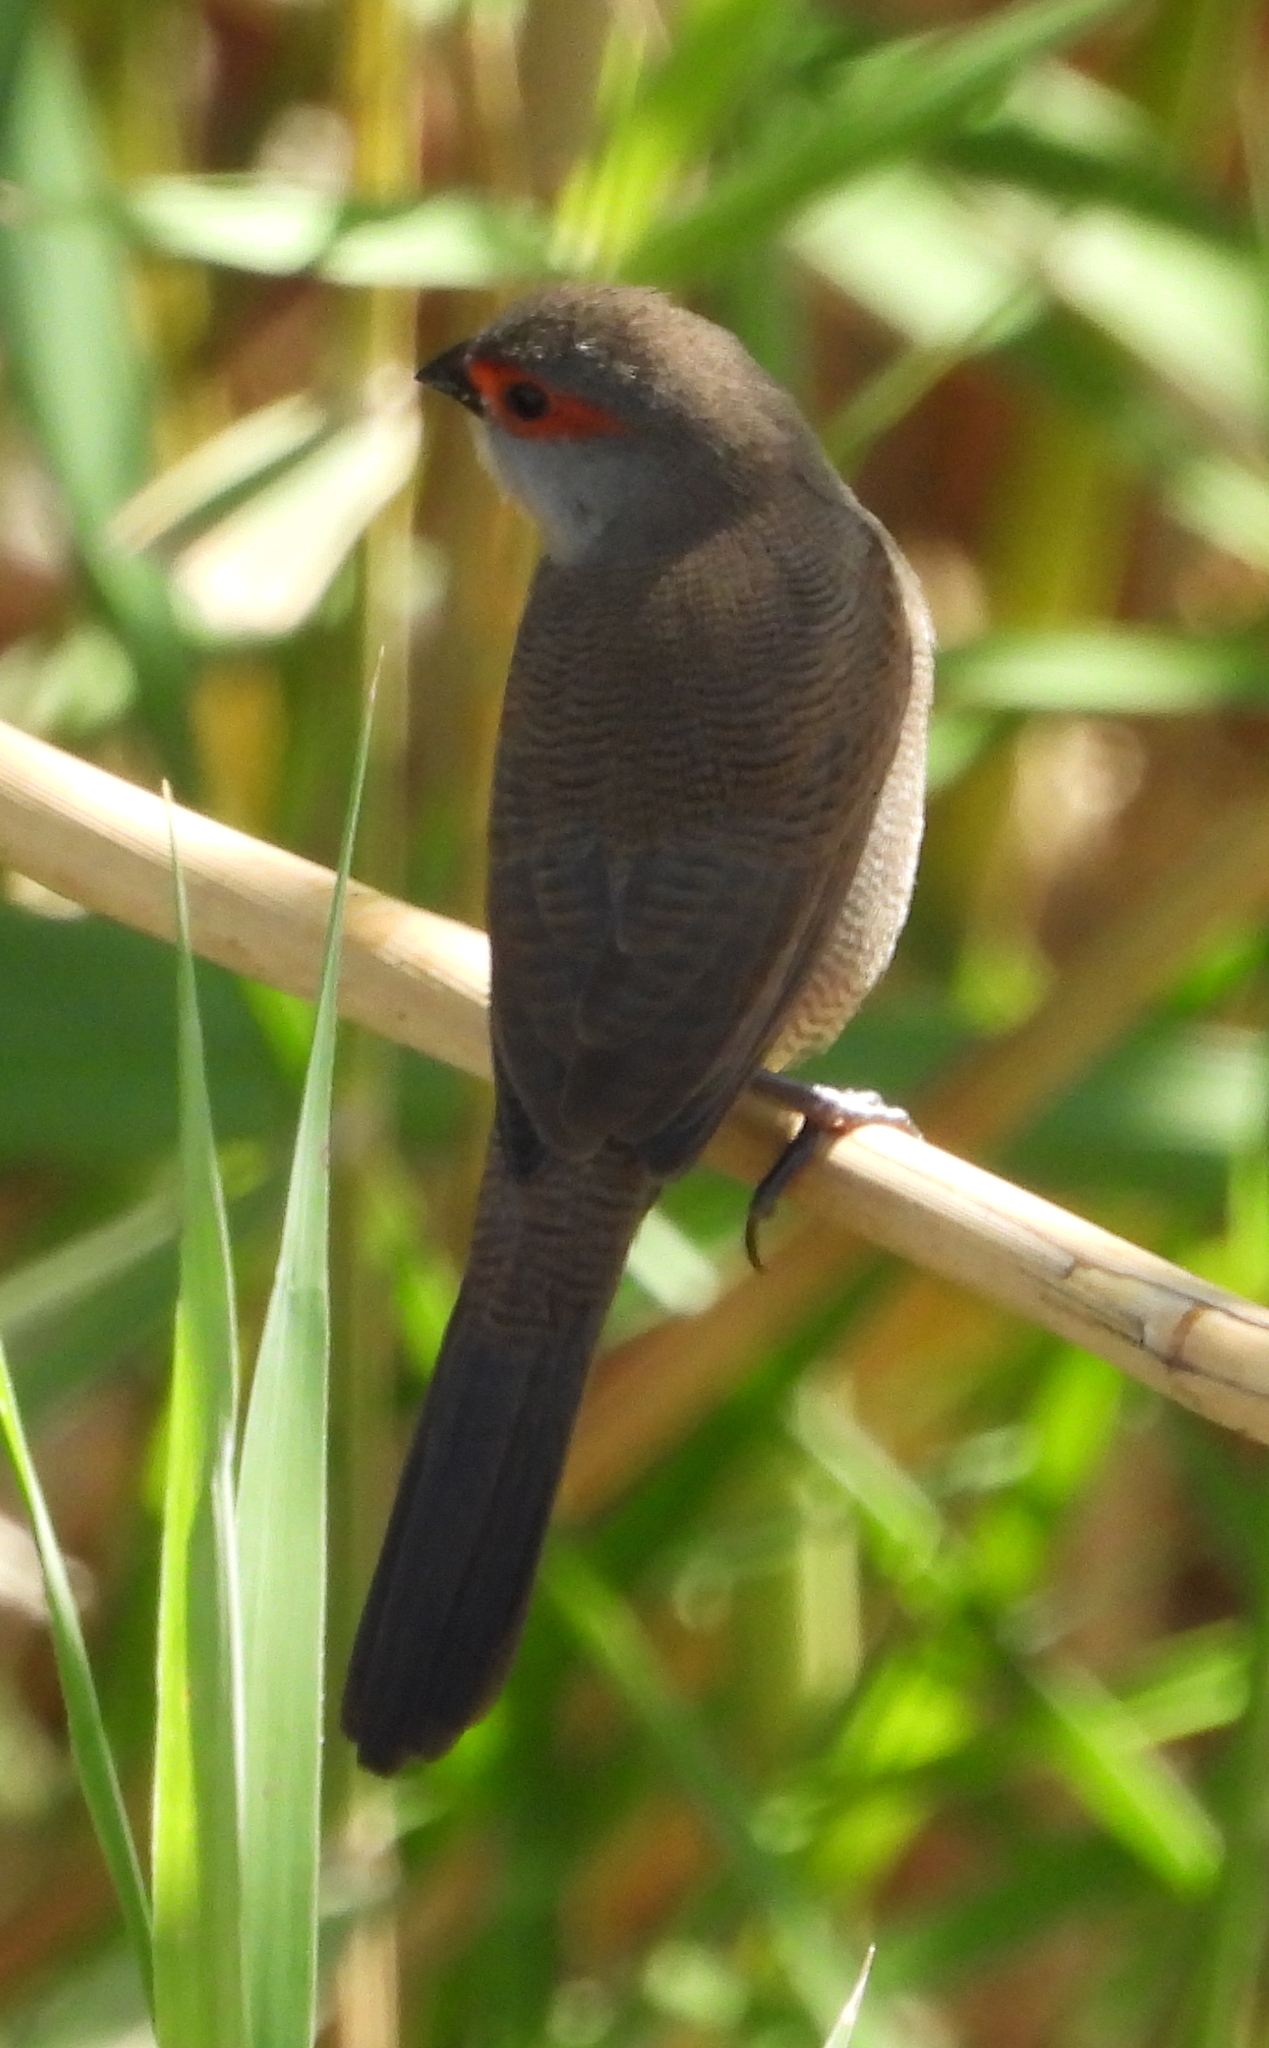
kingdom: Animalia
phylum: Chordata
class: Aves
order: Passeriformes
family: Estrildidae
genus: Estrilda
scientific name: Estrilda astrild
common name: Common waxbill
